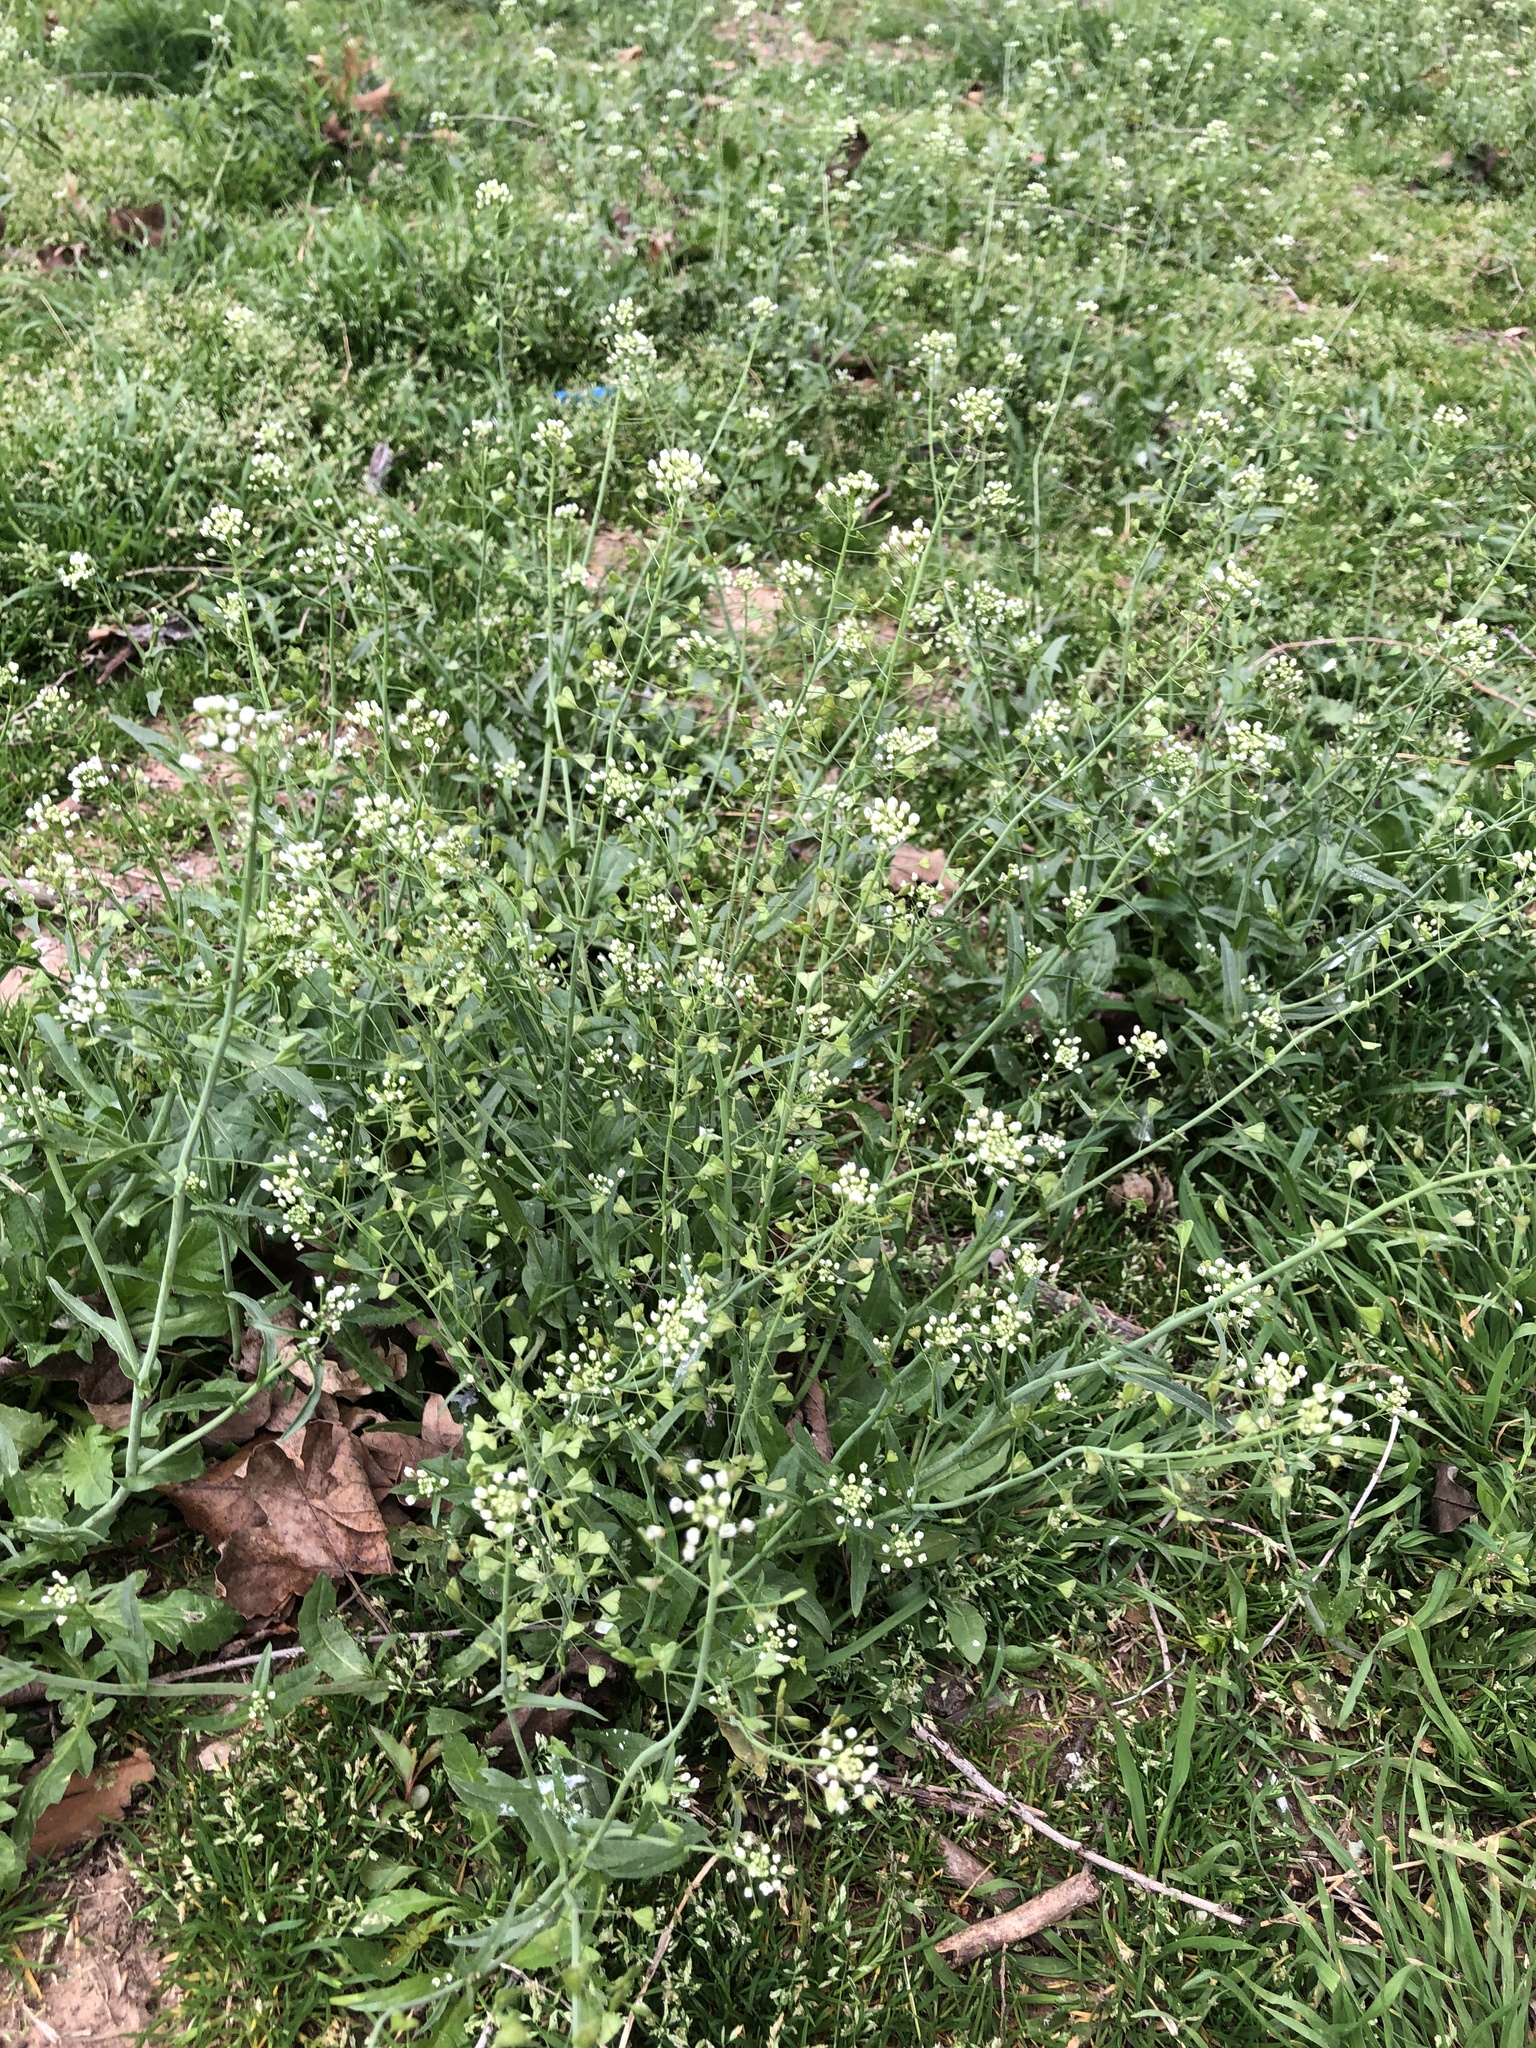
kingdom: Plantae
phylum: Tracheophyta
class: Magnoliopsida
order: Brassicales
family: Brassicaceae
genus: Capsella
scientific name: Capsella bursa-pastoris
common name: Shepherd's purse
